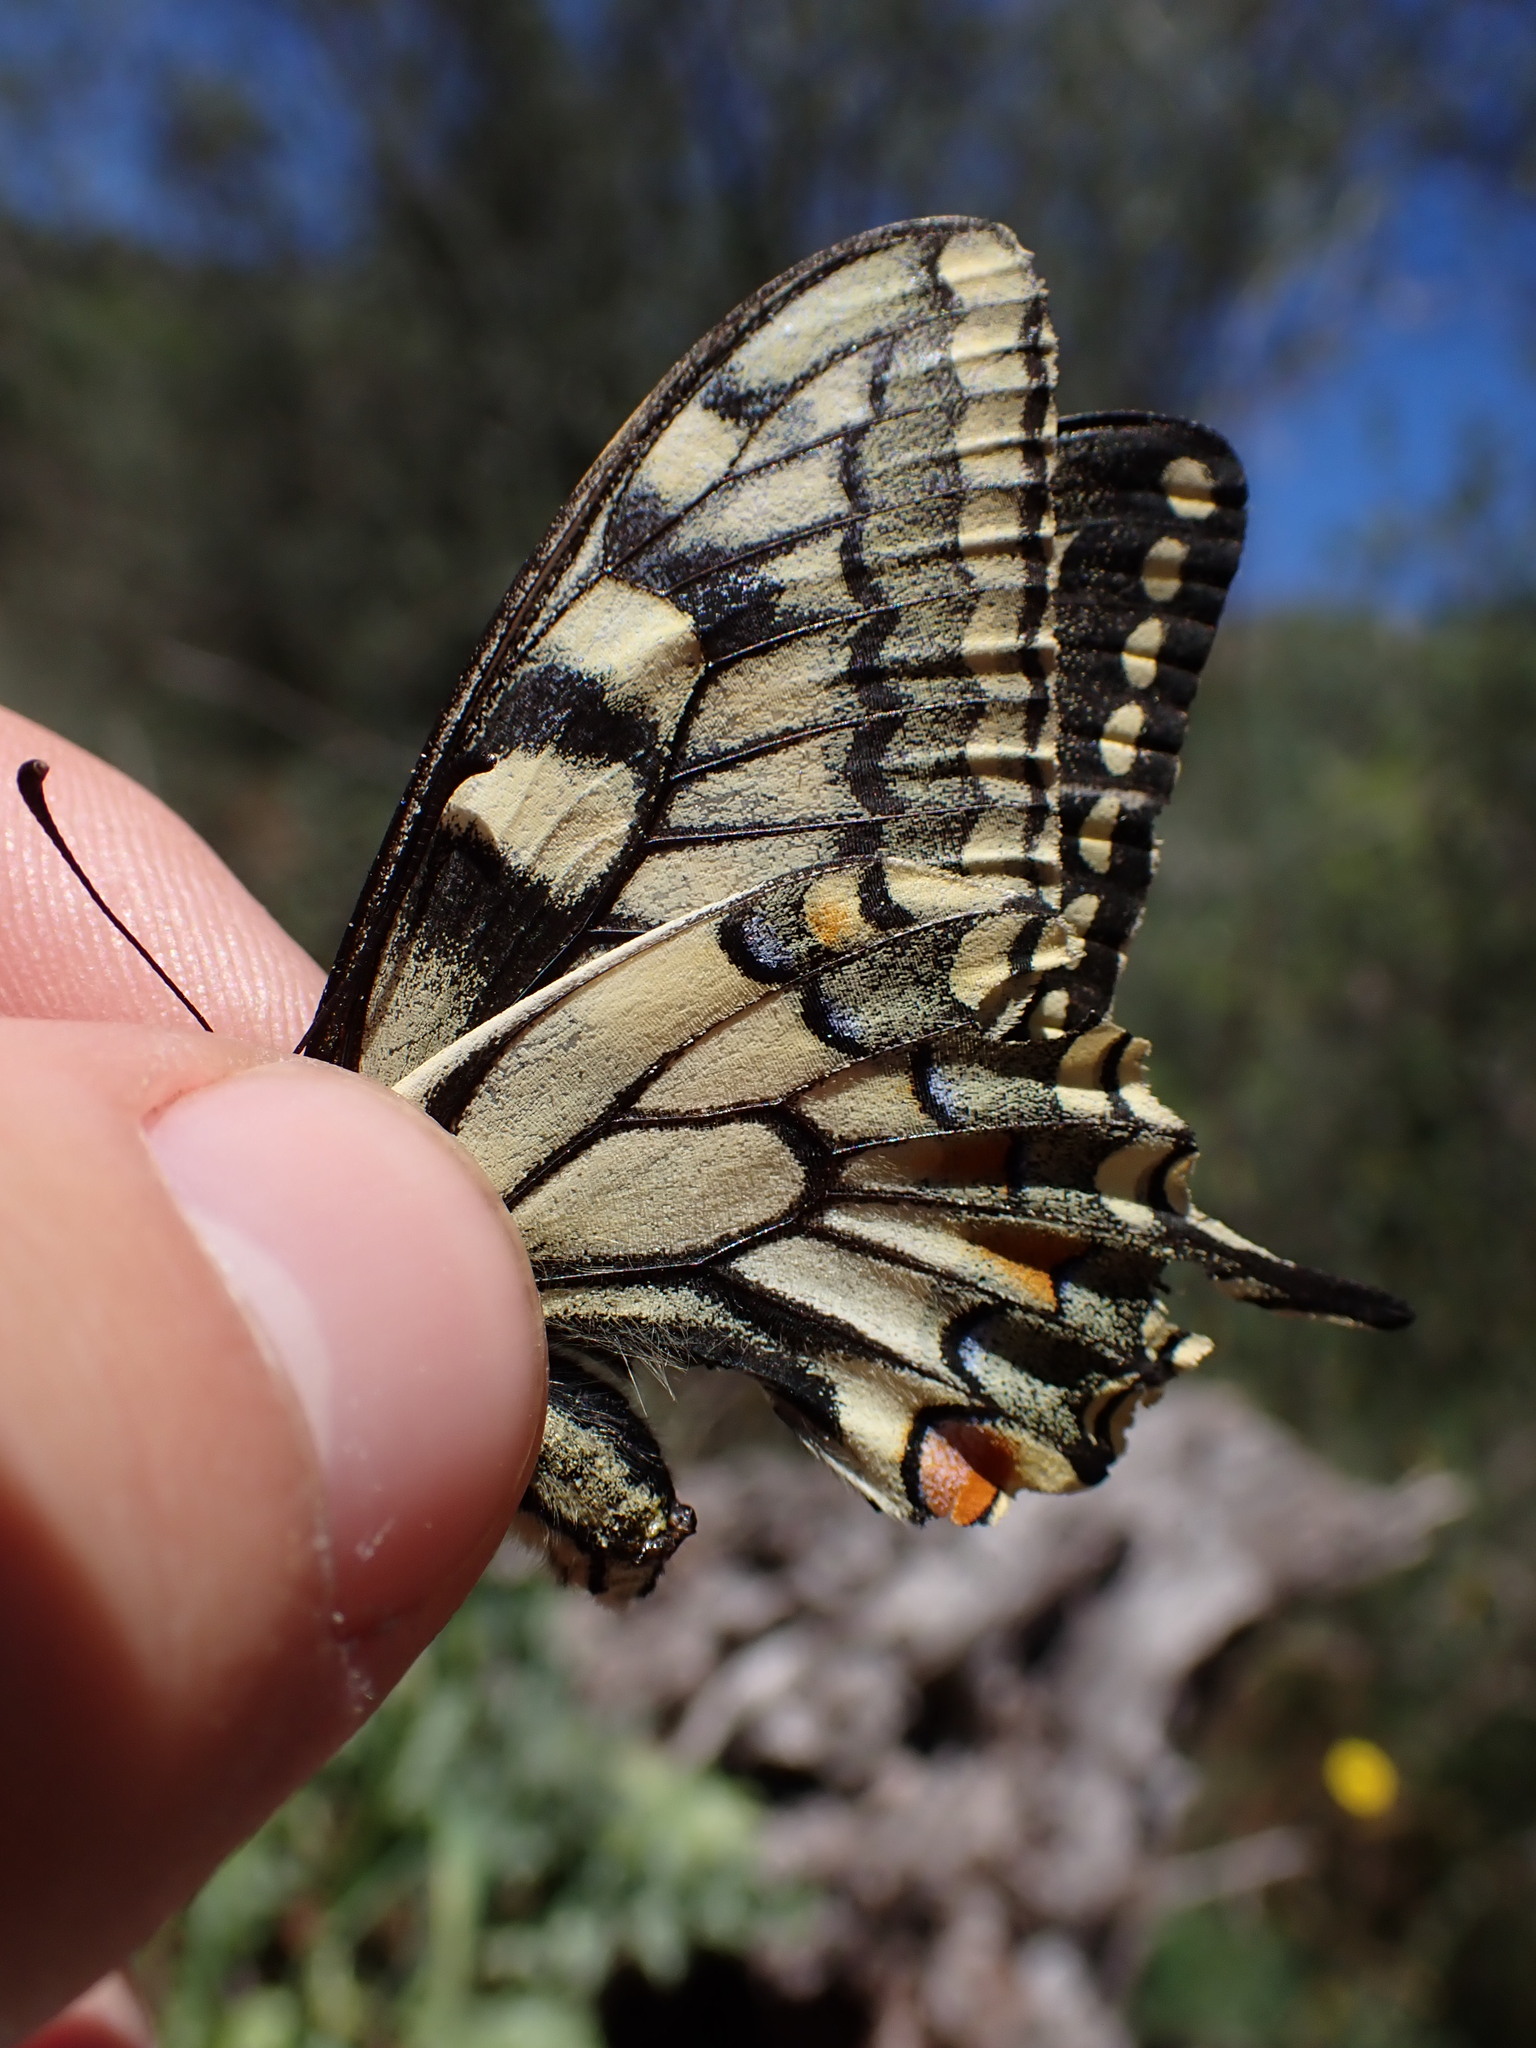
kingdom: Animalia
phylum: Arthropoda
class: Insecta
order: Lepidoptera
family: Papilionidae
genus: Papilio
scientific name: Papilio machaon
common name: Swallowtail
